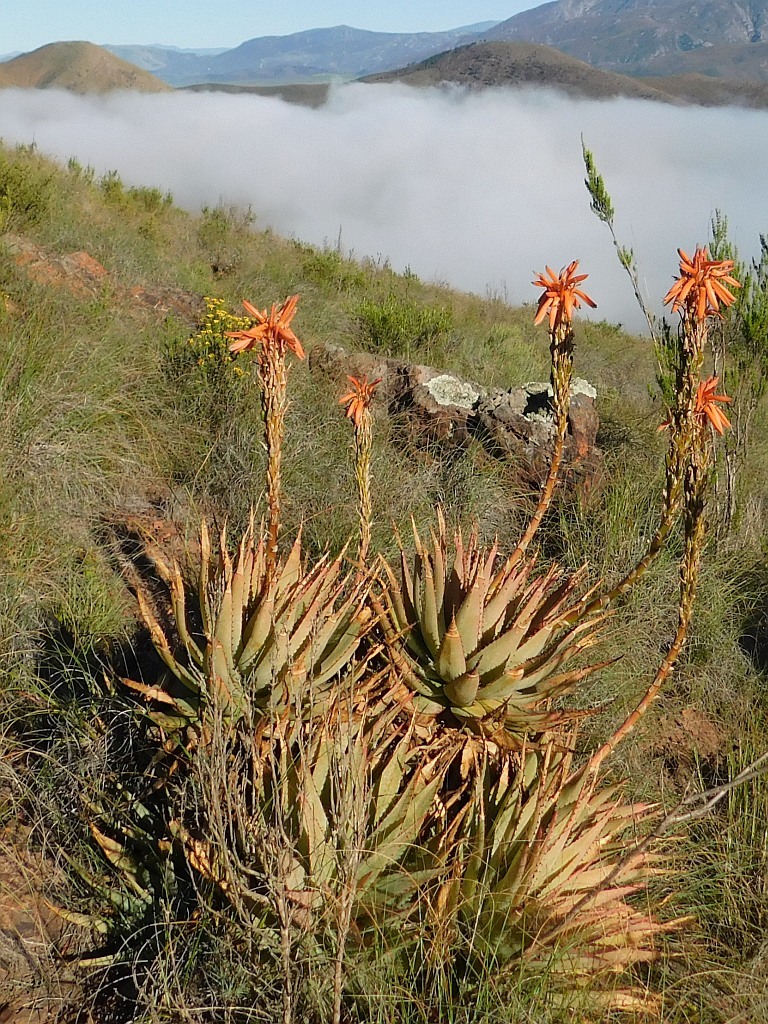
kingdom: Plantae
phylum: Tracheophyta
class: Liliopsida
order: Asparagales
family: Asphodelaceae
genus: Aloe
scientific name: Aloe glauca
